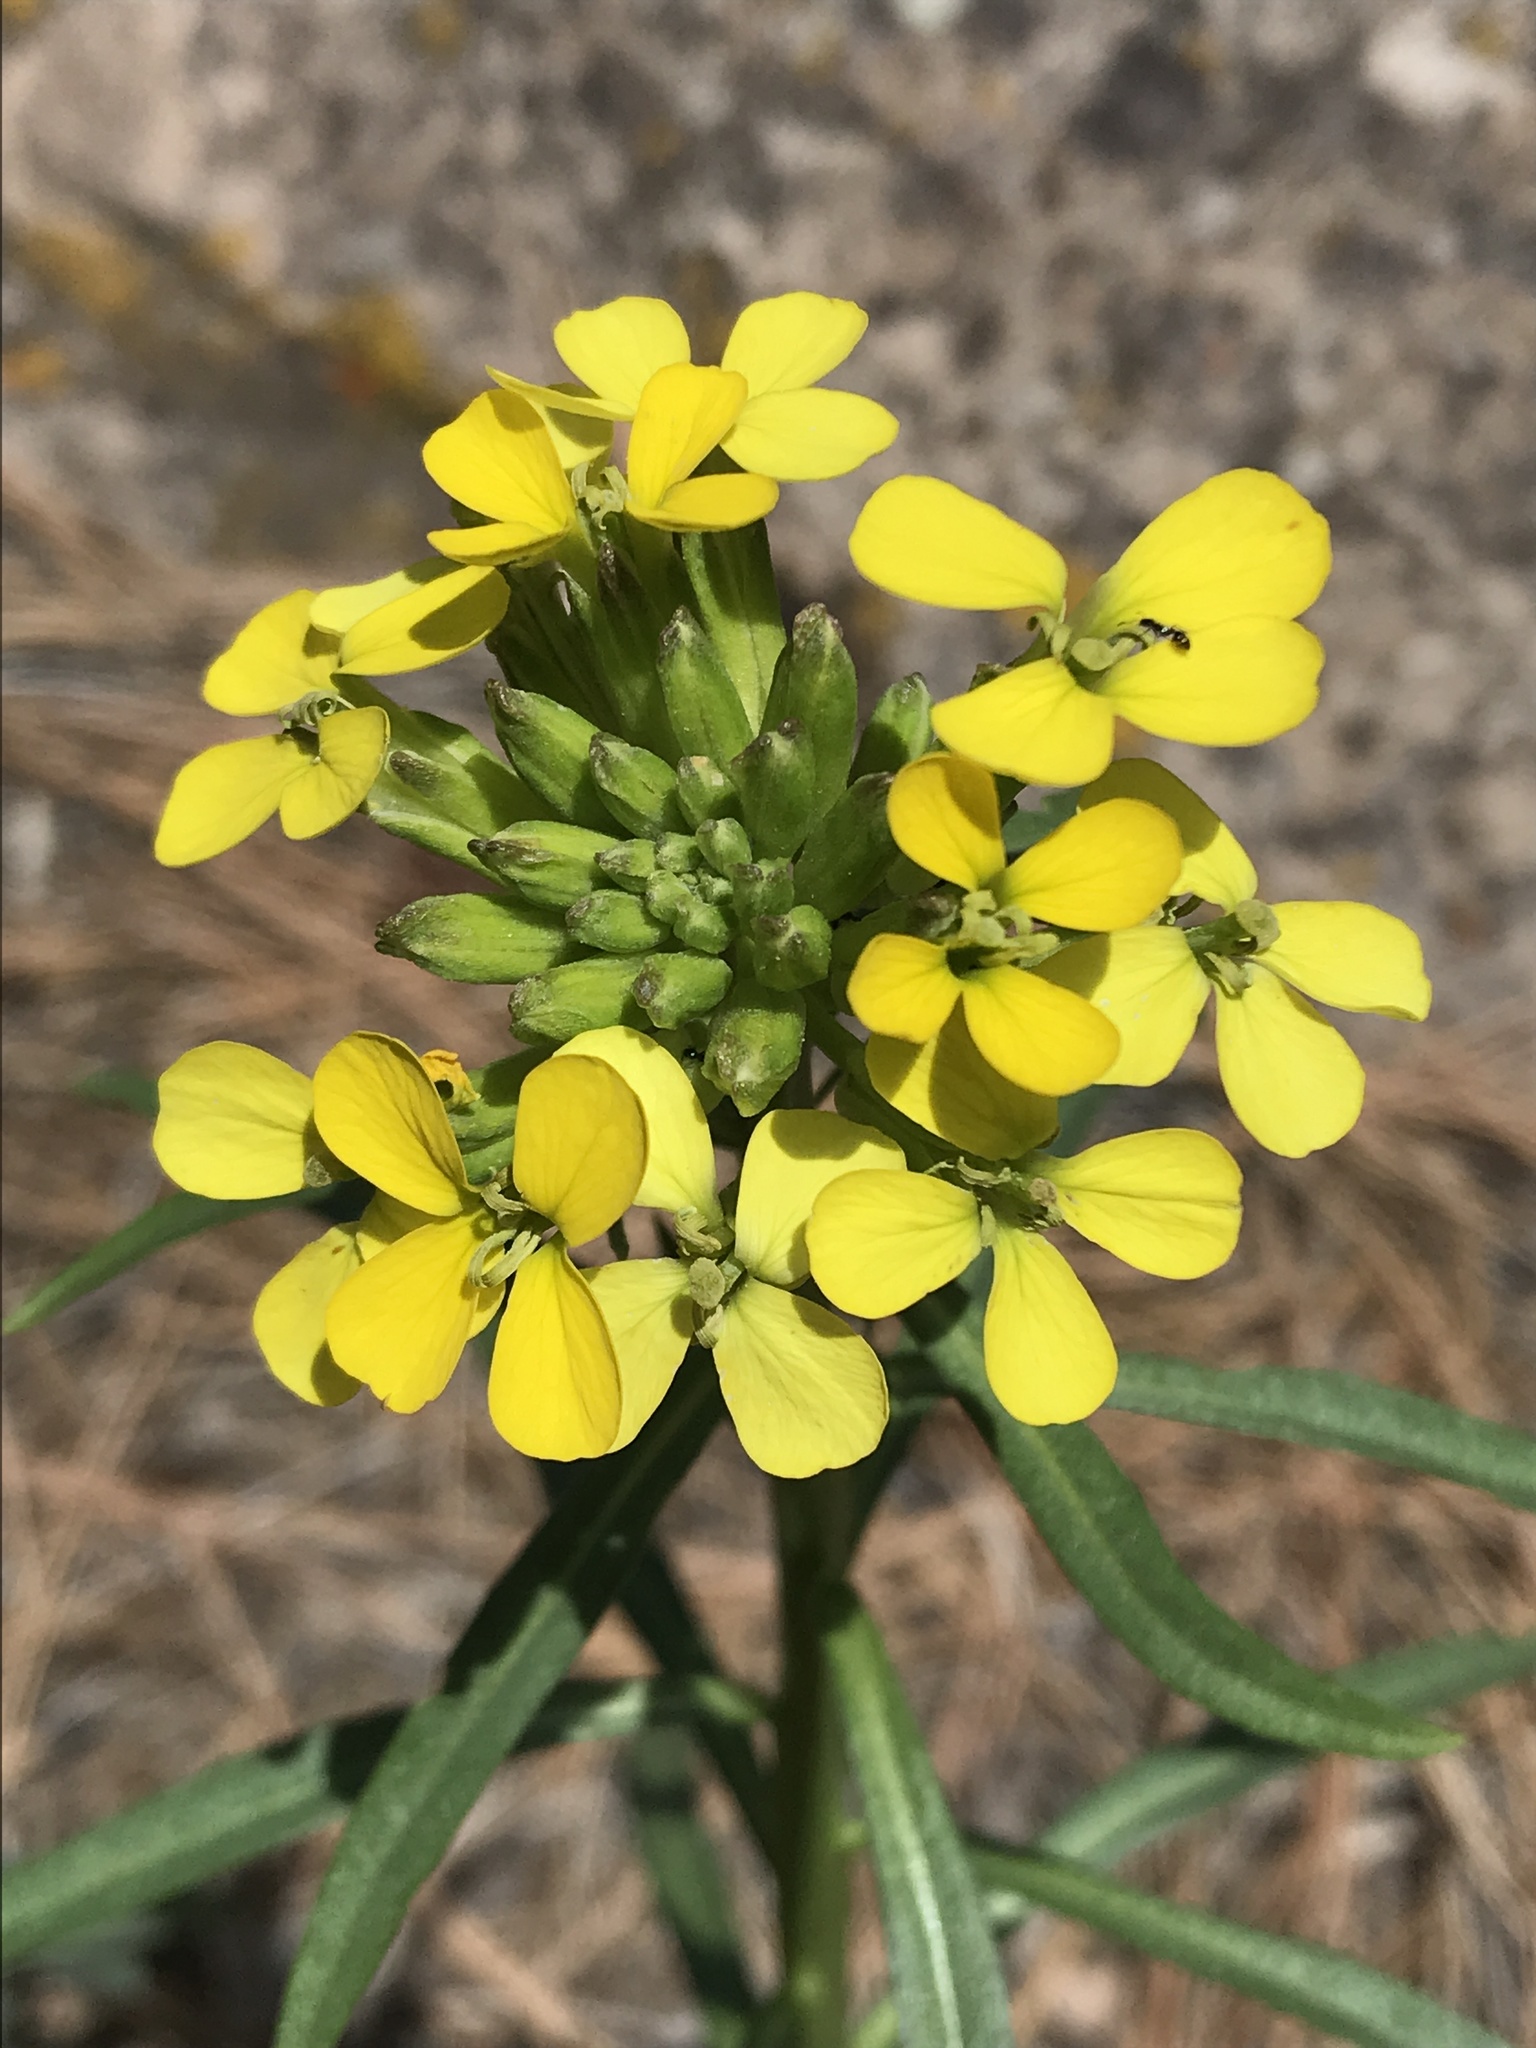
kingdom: Plantae
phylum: Tracheophyta
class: Magnoliopsida
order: Brassicales
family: Brassicaceae
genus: Erysimum
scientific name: Erysimum capitatum
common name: Western wallflower
